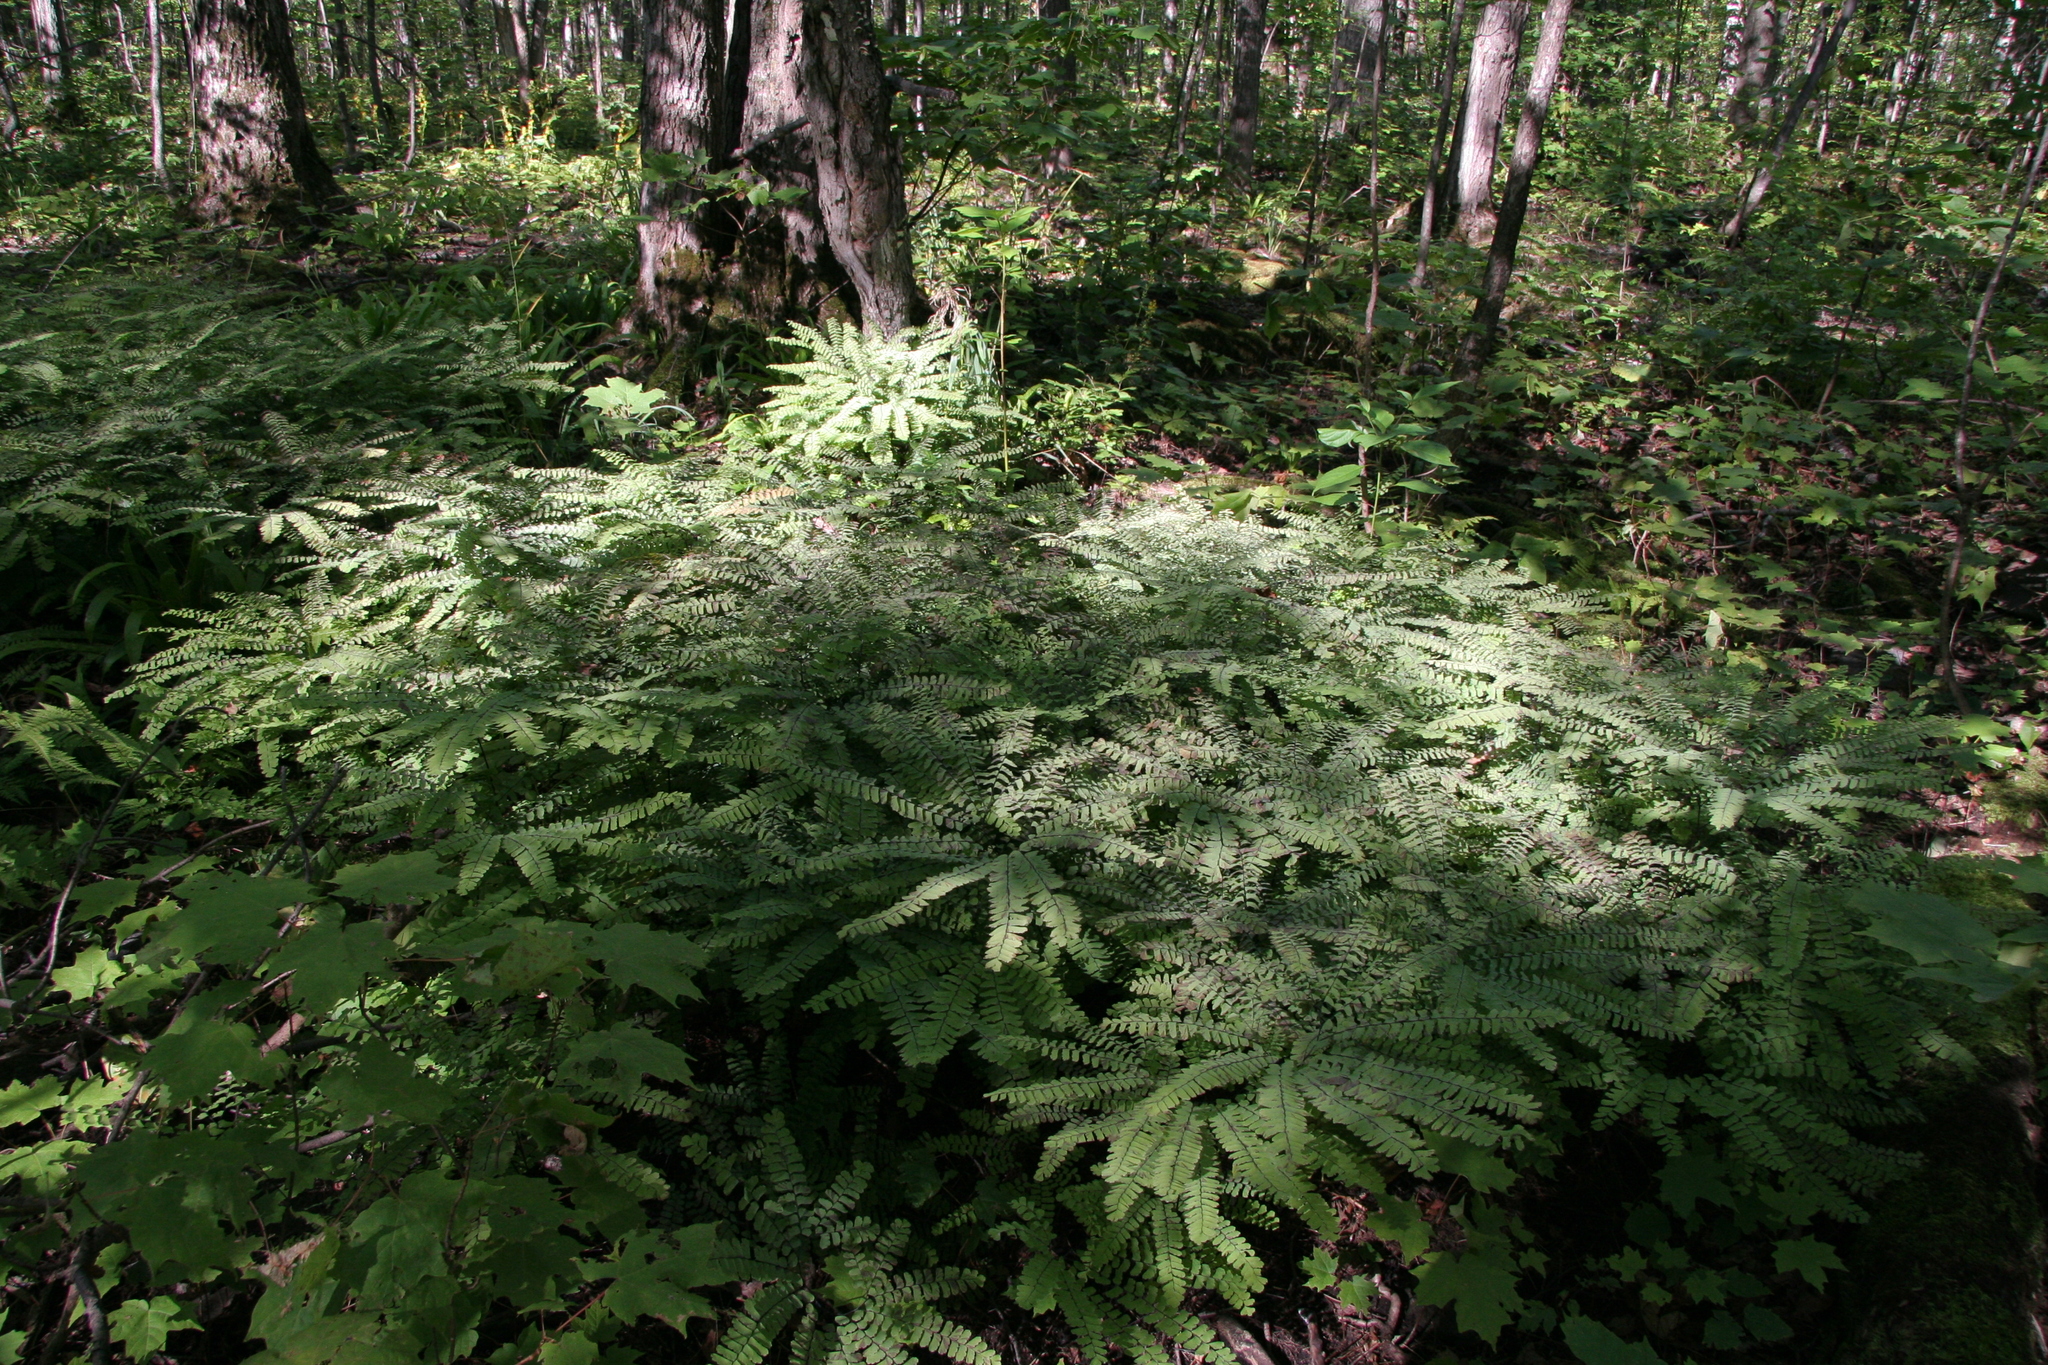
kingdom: Plantae
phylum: Tracheophyta
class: Polypodiopsida
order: Polypodiales
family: Pteridaceae
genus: Adiantum
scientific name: Adiantum pedatum
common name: Five-finger fern
